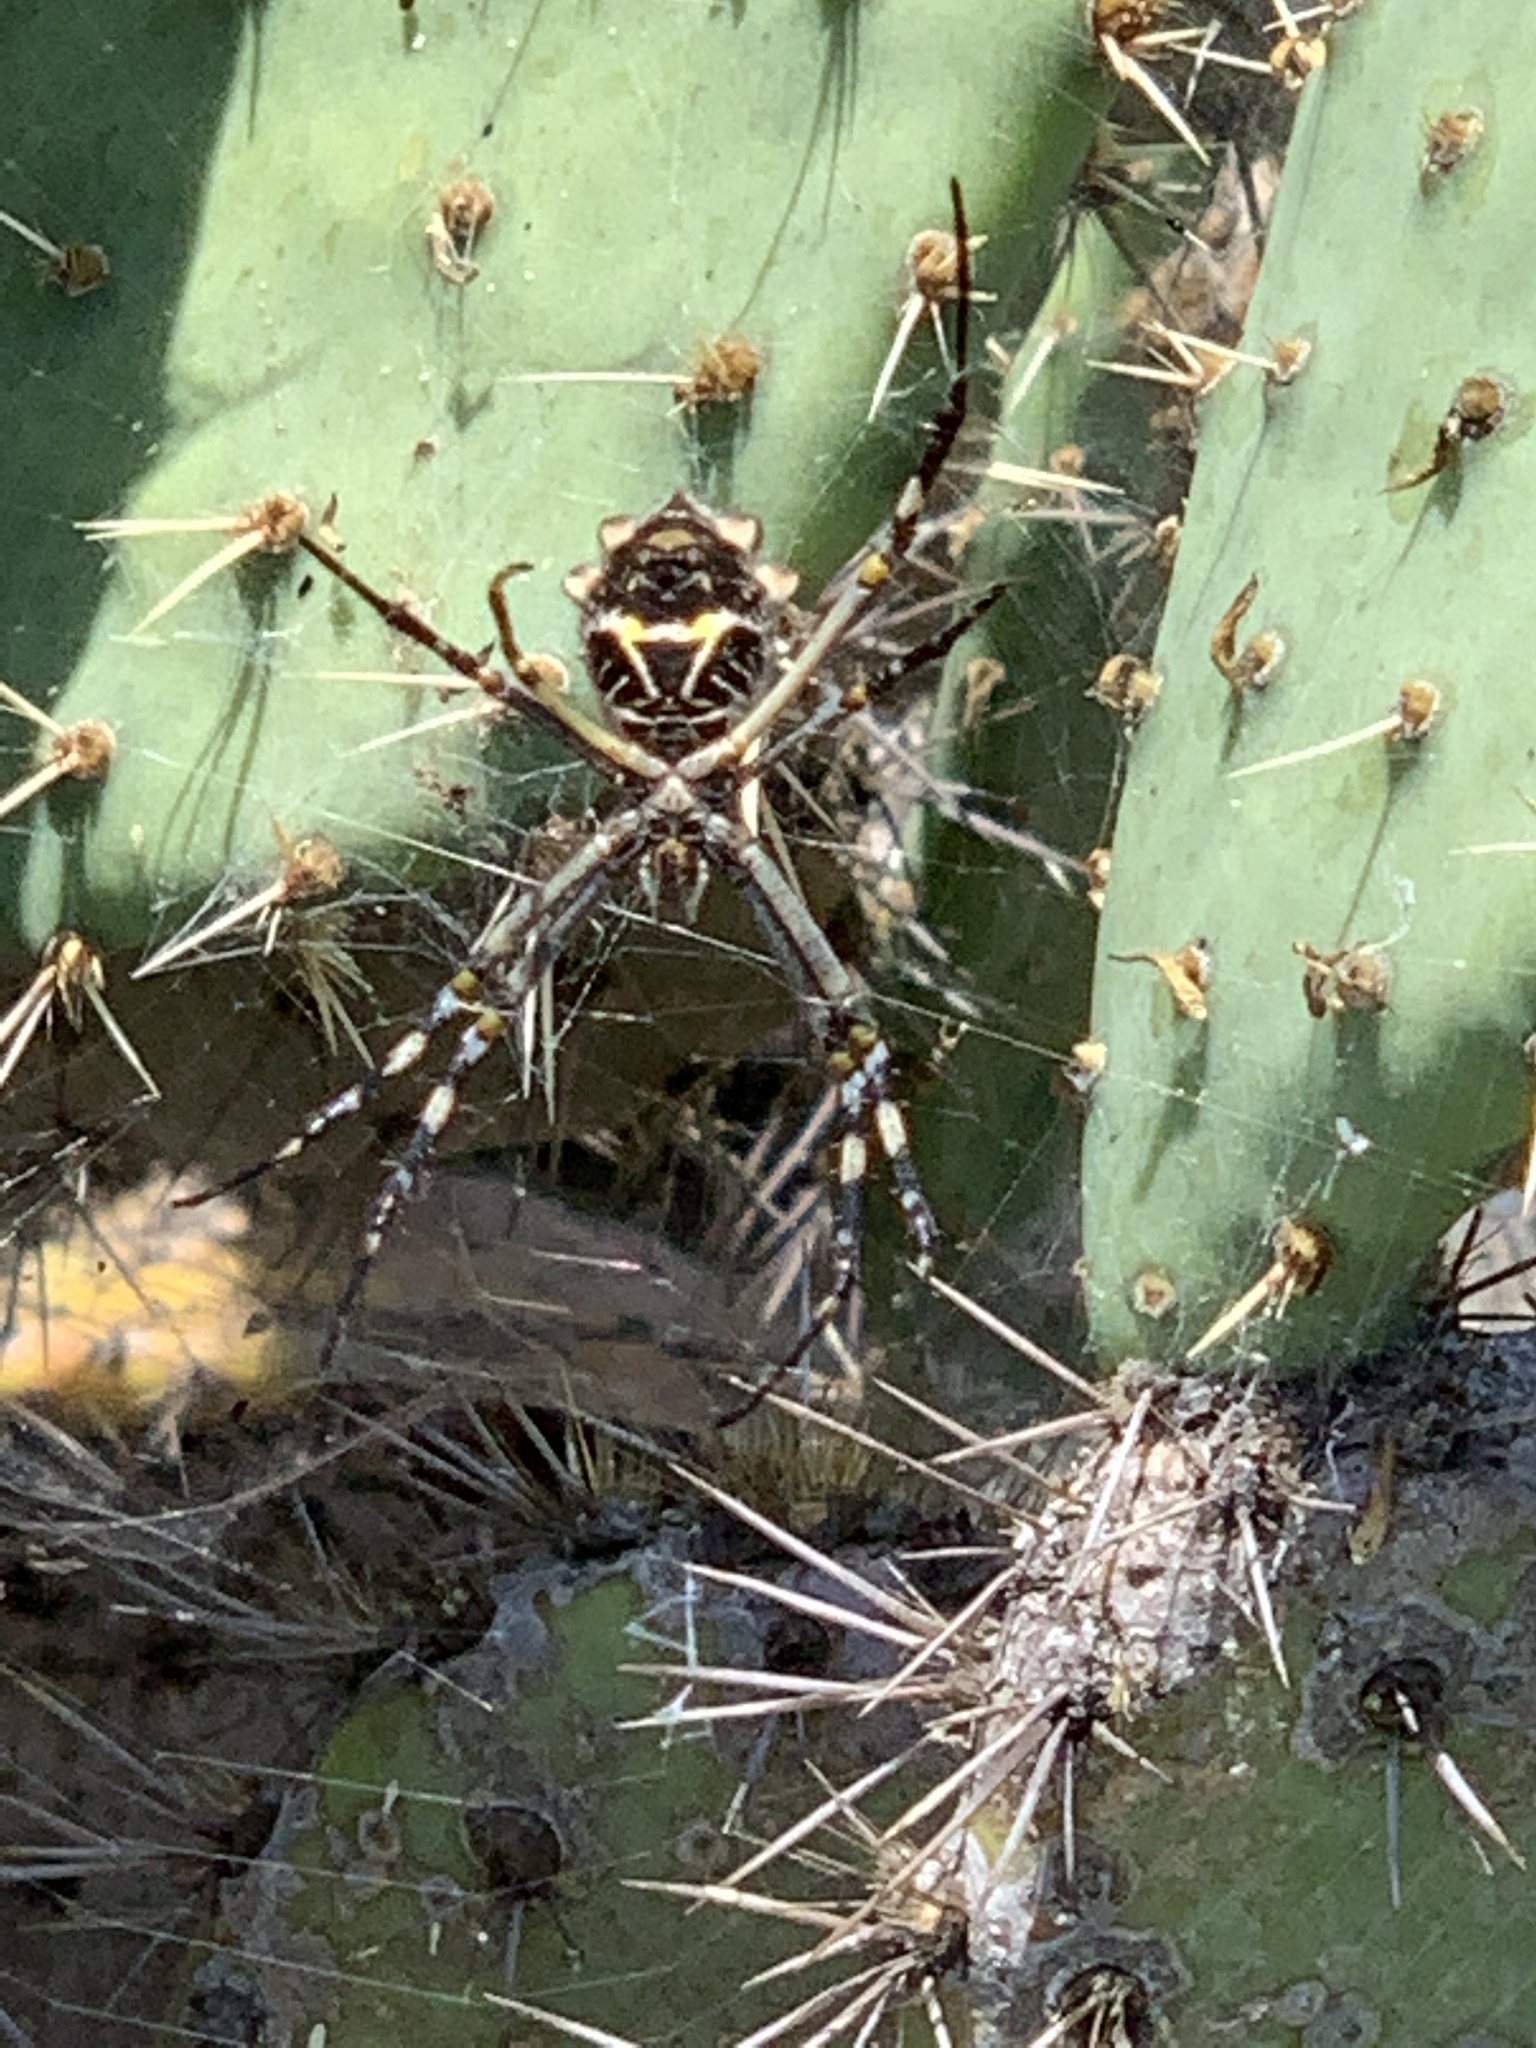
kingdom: Animalia
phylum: Arthropoda
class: Arachnida
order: Araneae
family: Araneidae
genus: Argiope
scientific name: Argiope argentata
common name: Orb weavers
